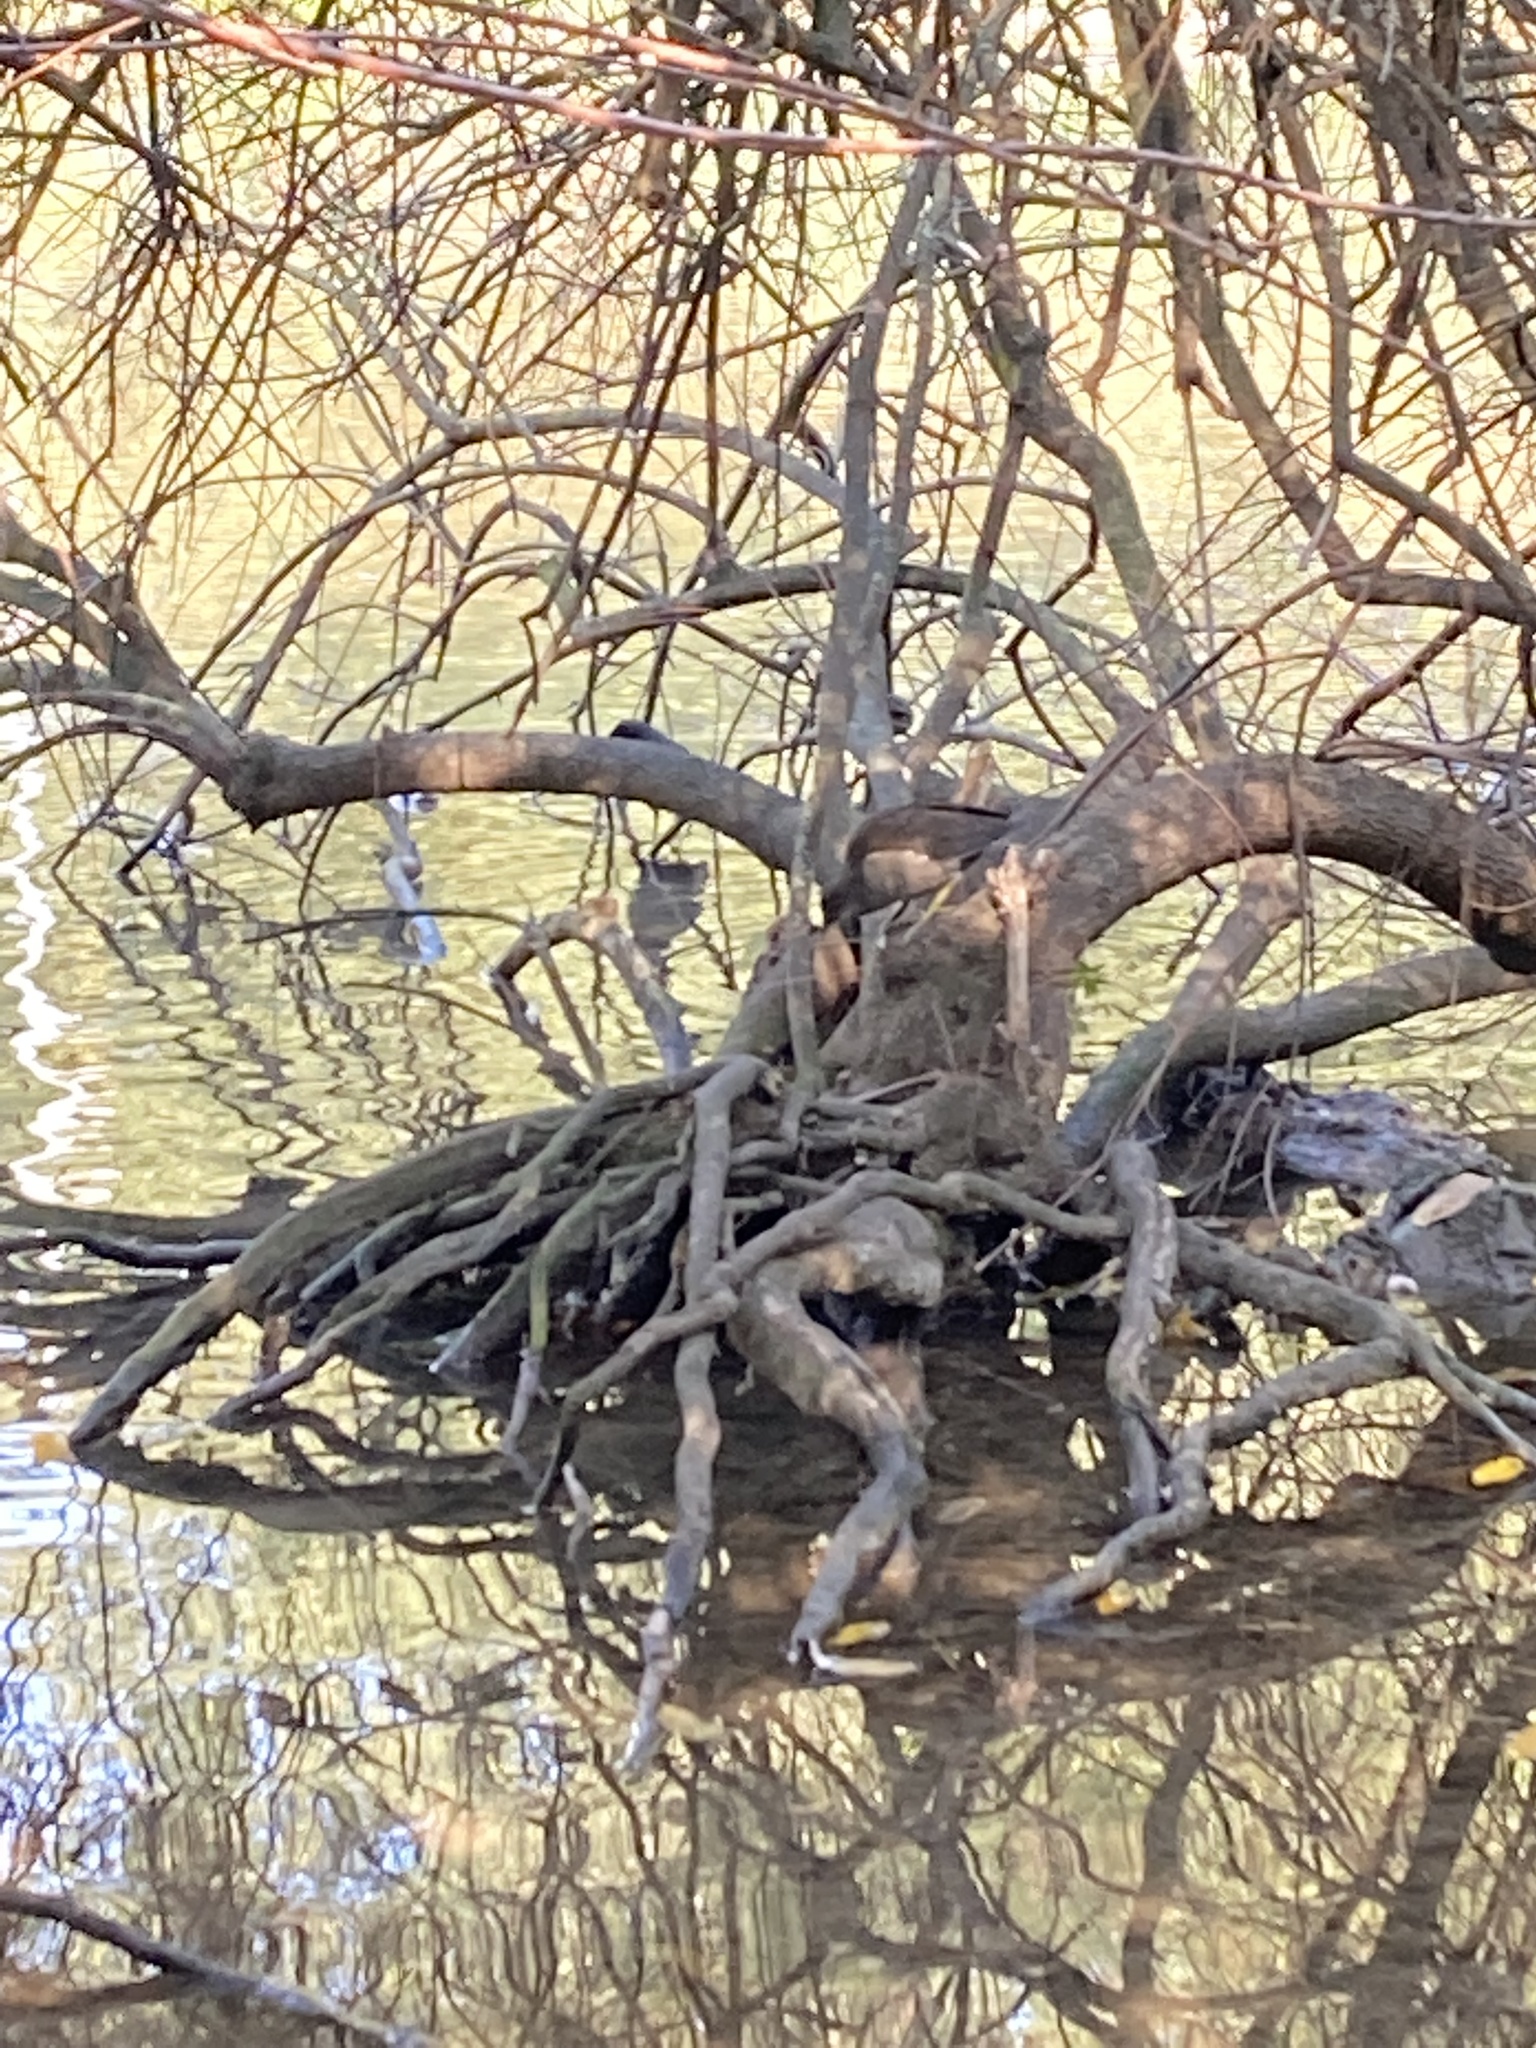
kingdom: Animalia
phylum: Chordata
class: Aves
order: Gruiformes
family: Rallidae
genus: Gallinula
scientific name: Gallinula chloropus
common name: Common moorhen
